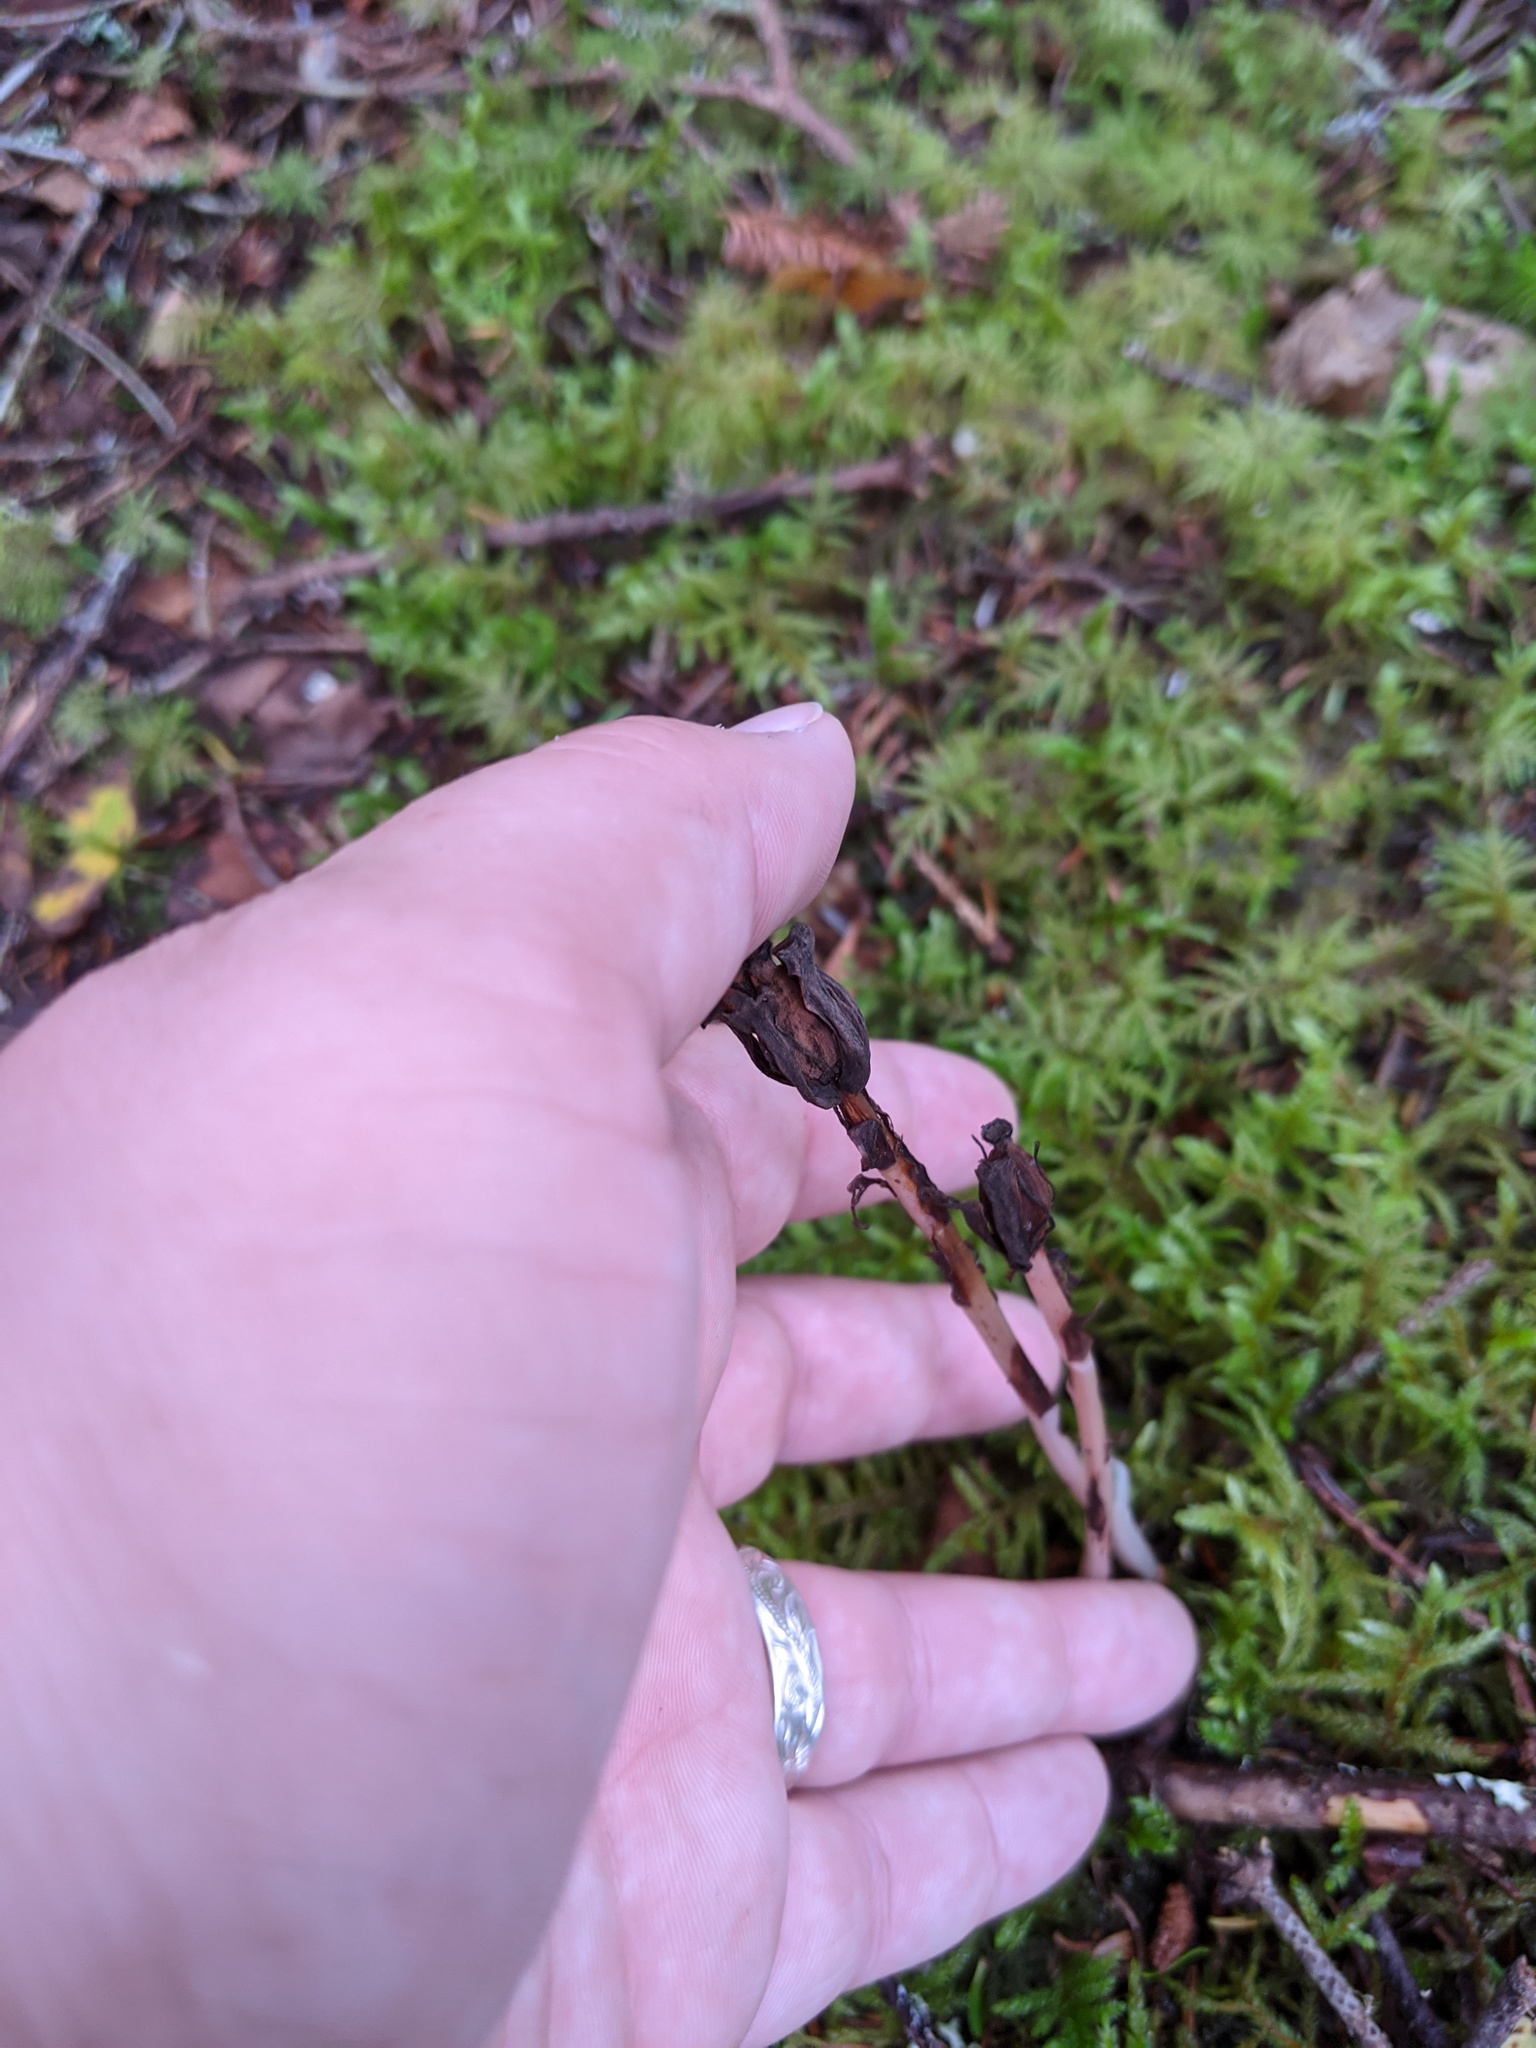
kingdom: Plantae
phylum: Tracheophyta
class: Magnoliopsida
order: Ericales
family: Ericaceae
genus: Monotropa
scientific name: Monotropa uniflora
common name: Convulsion root
